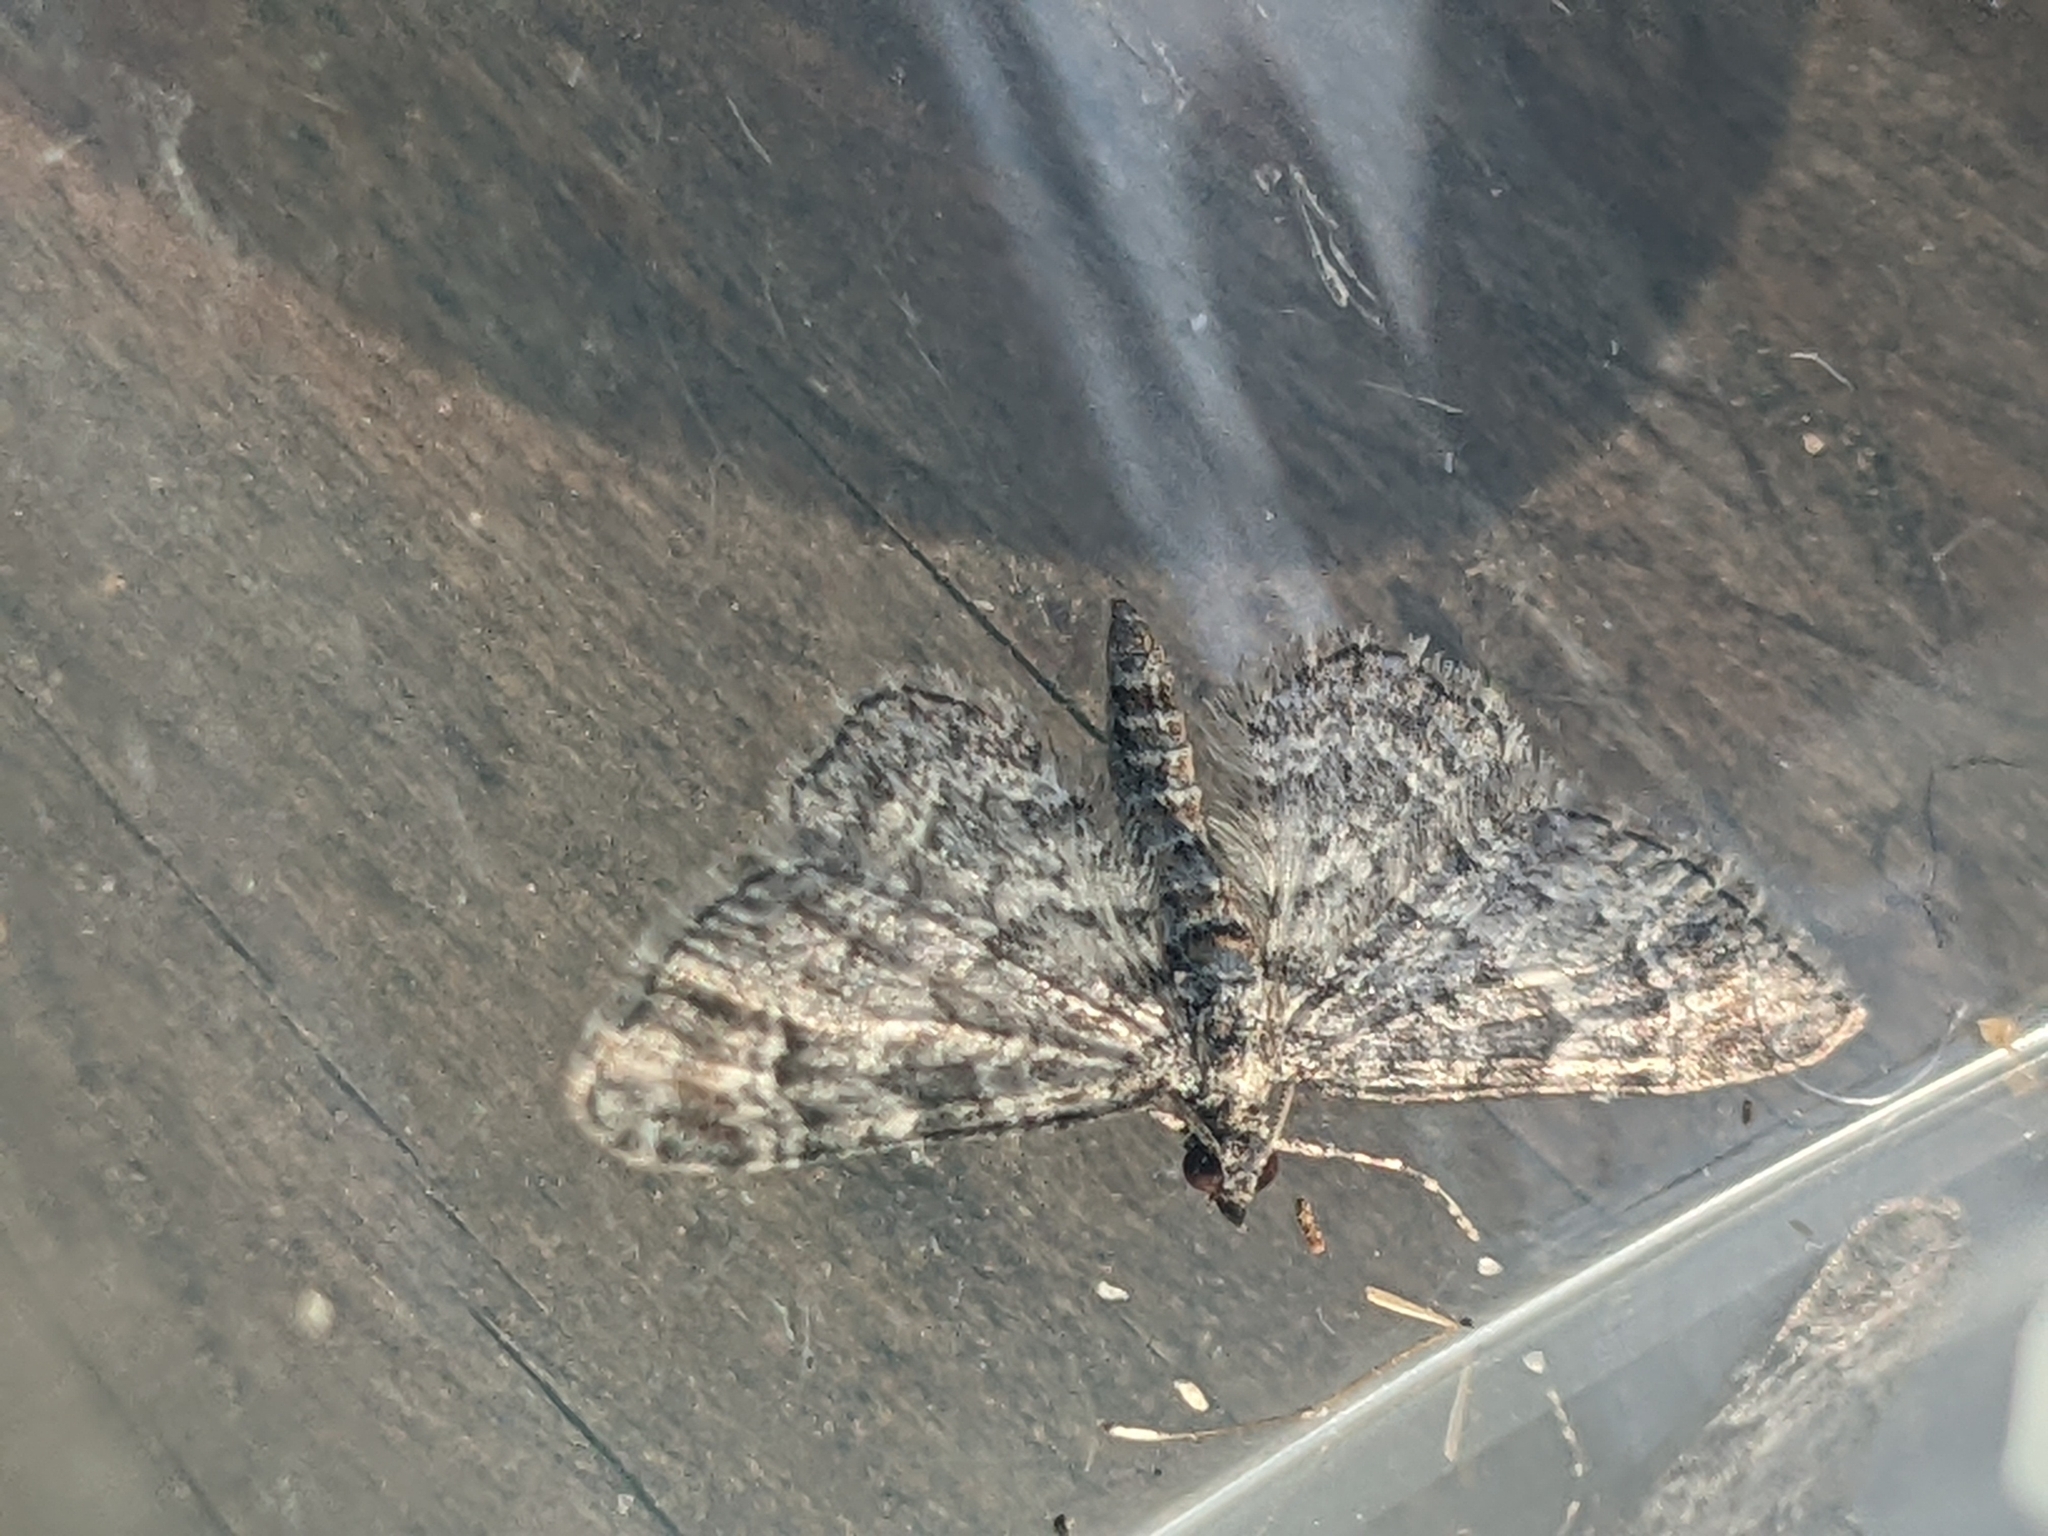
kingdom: Animalia
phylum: Arthropoda
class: Insecta
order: Lepidoptera
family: Geometridae
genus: Gymnoscelis
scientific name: Gymnoscelis rufifasciata
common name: Double-striped pug
